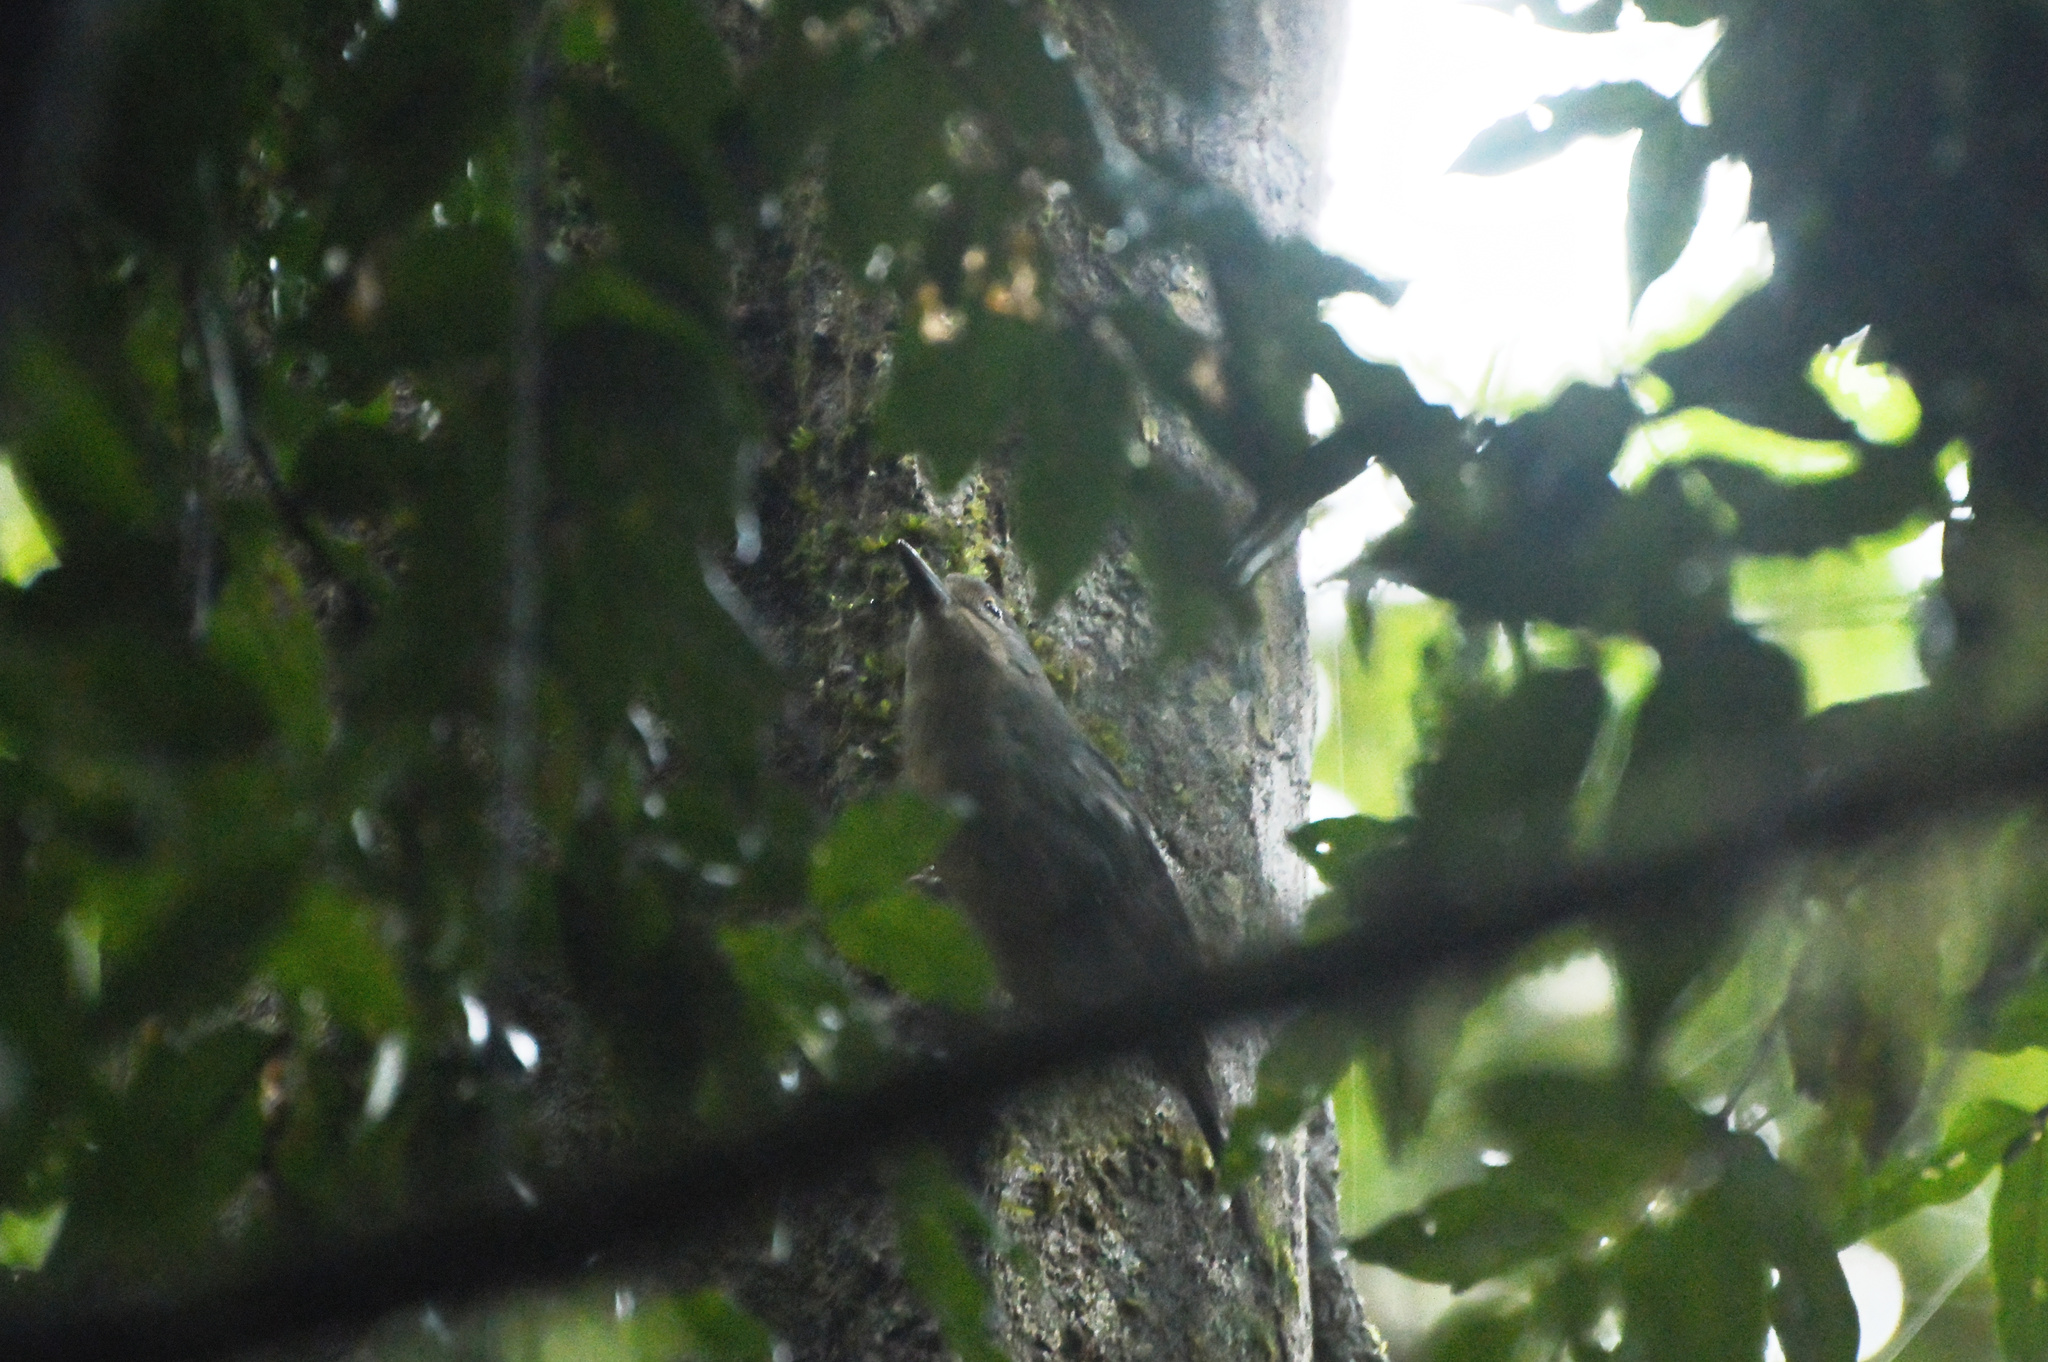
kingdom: Animalia
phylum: Chordata
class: Aves
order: Passeriformes
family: Pachycephalidae
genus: Colluricincla
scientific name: Colluricincla boweri
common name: Bower's shrikethrush
